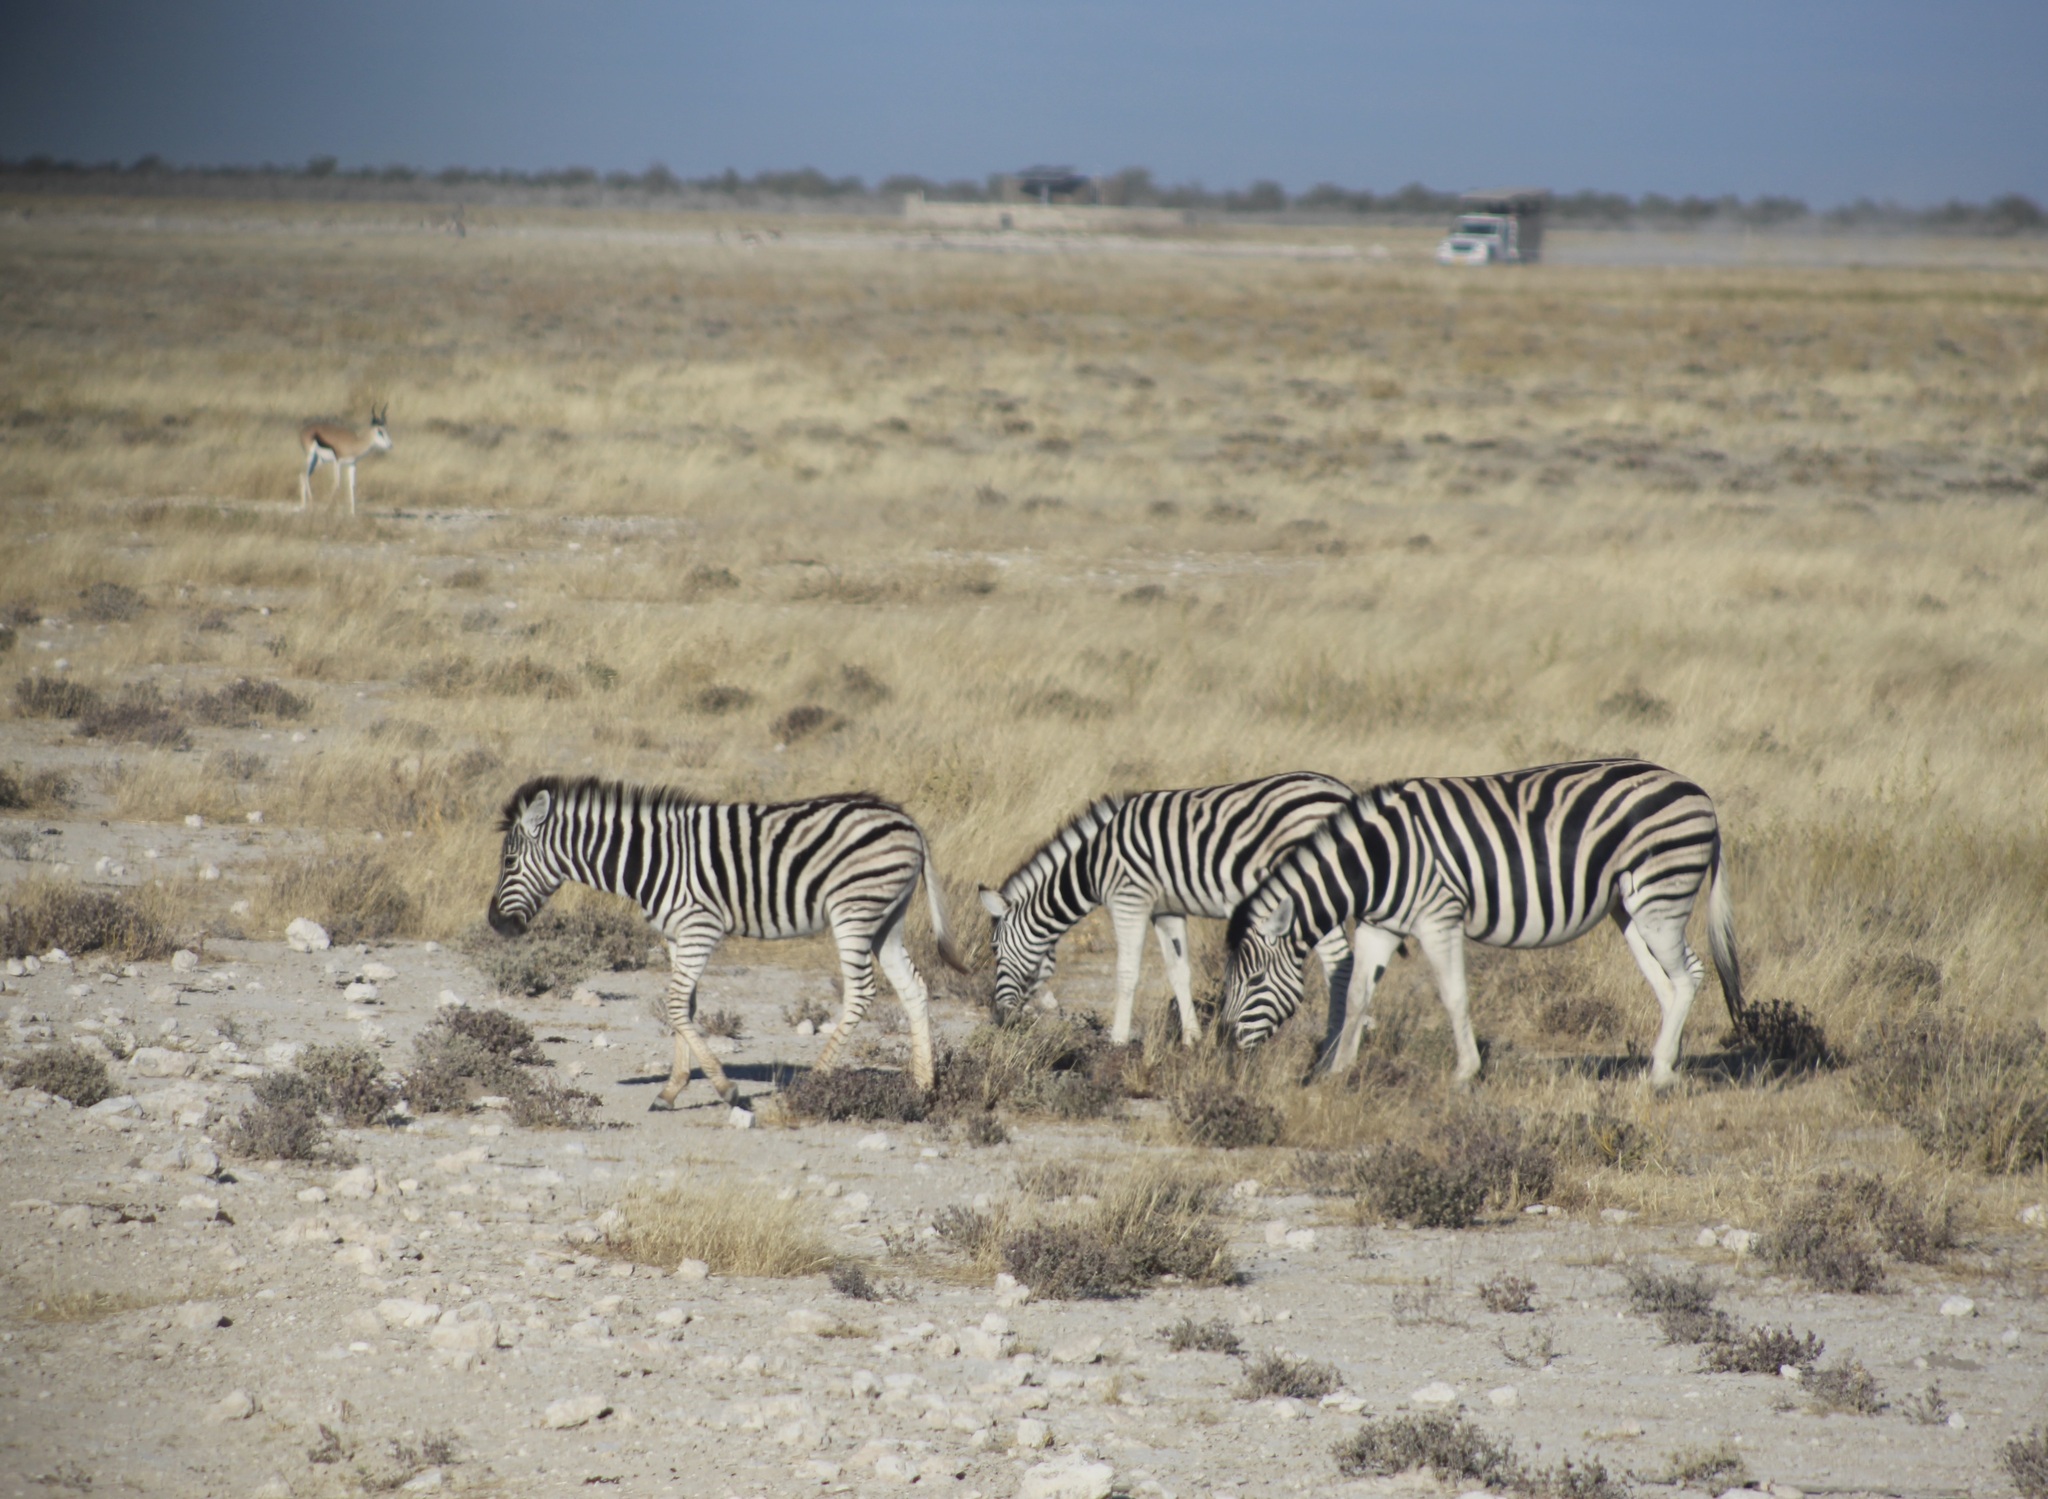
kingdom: Animalia
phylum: Chordata
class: Mammalia
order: Perissodactyla
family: Equidae
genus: Equus
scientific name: Equus quagga
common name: Plains zebra
